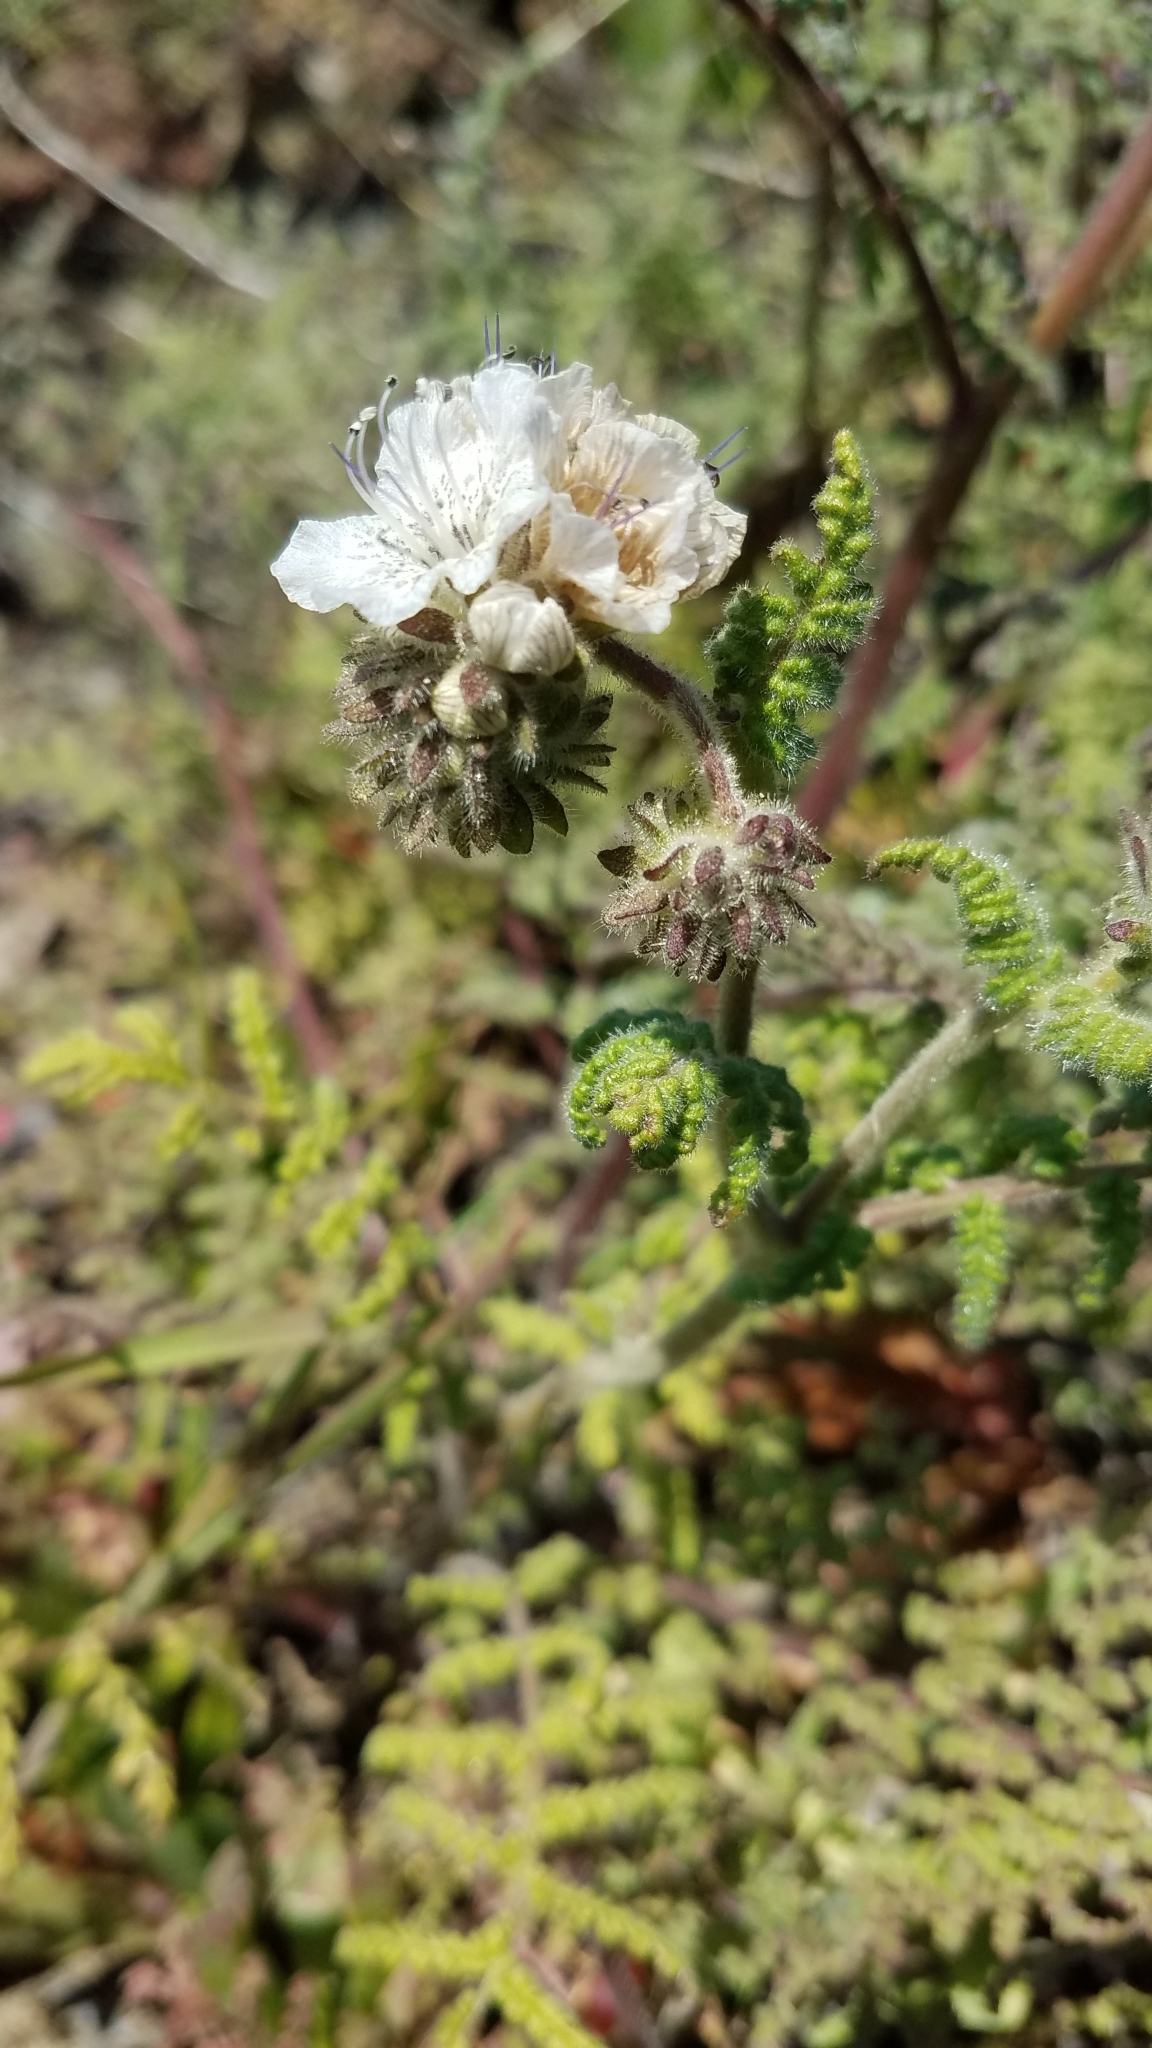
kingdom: Plantae
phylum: Tracheophyta
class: Magnoliopsida
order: Boraginales
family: Hydrophyllaceae
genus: Phacelia
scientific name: Phacelia distans
